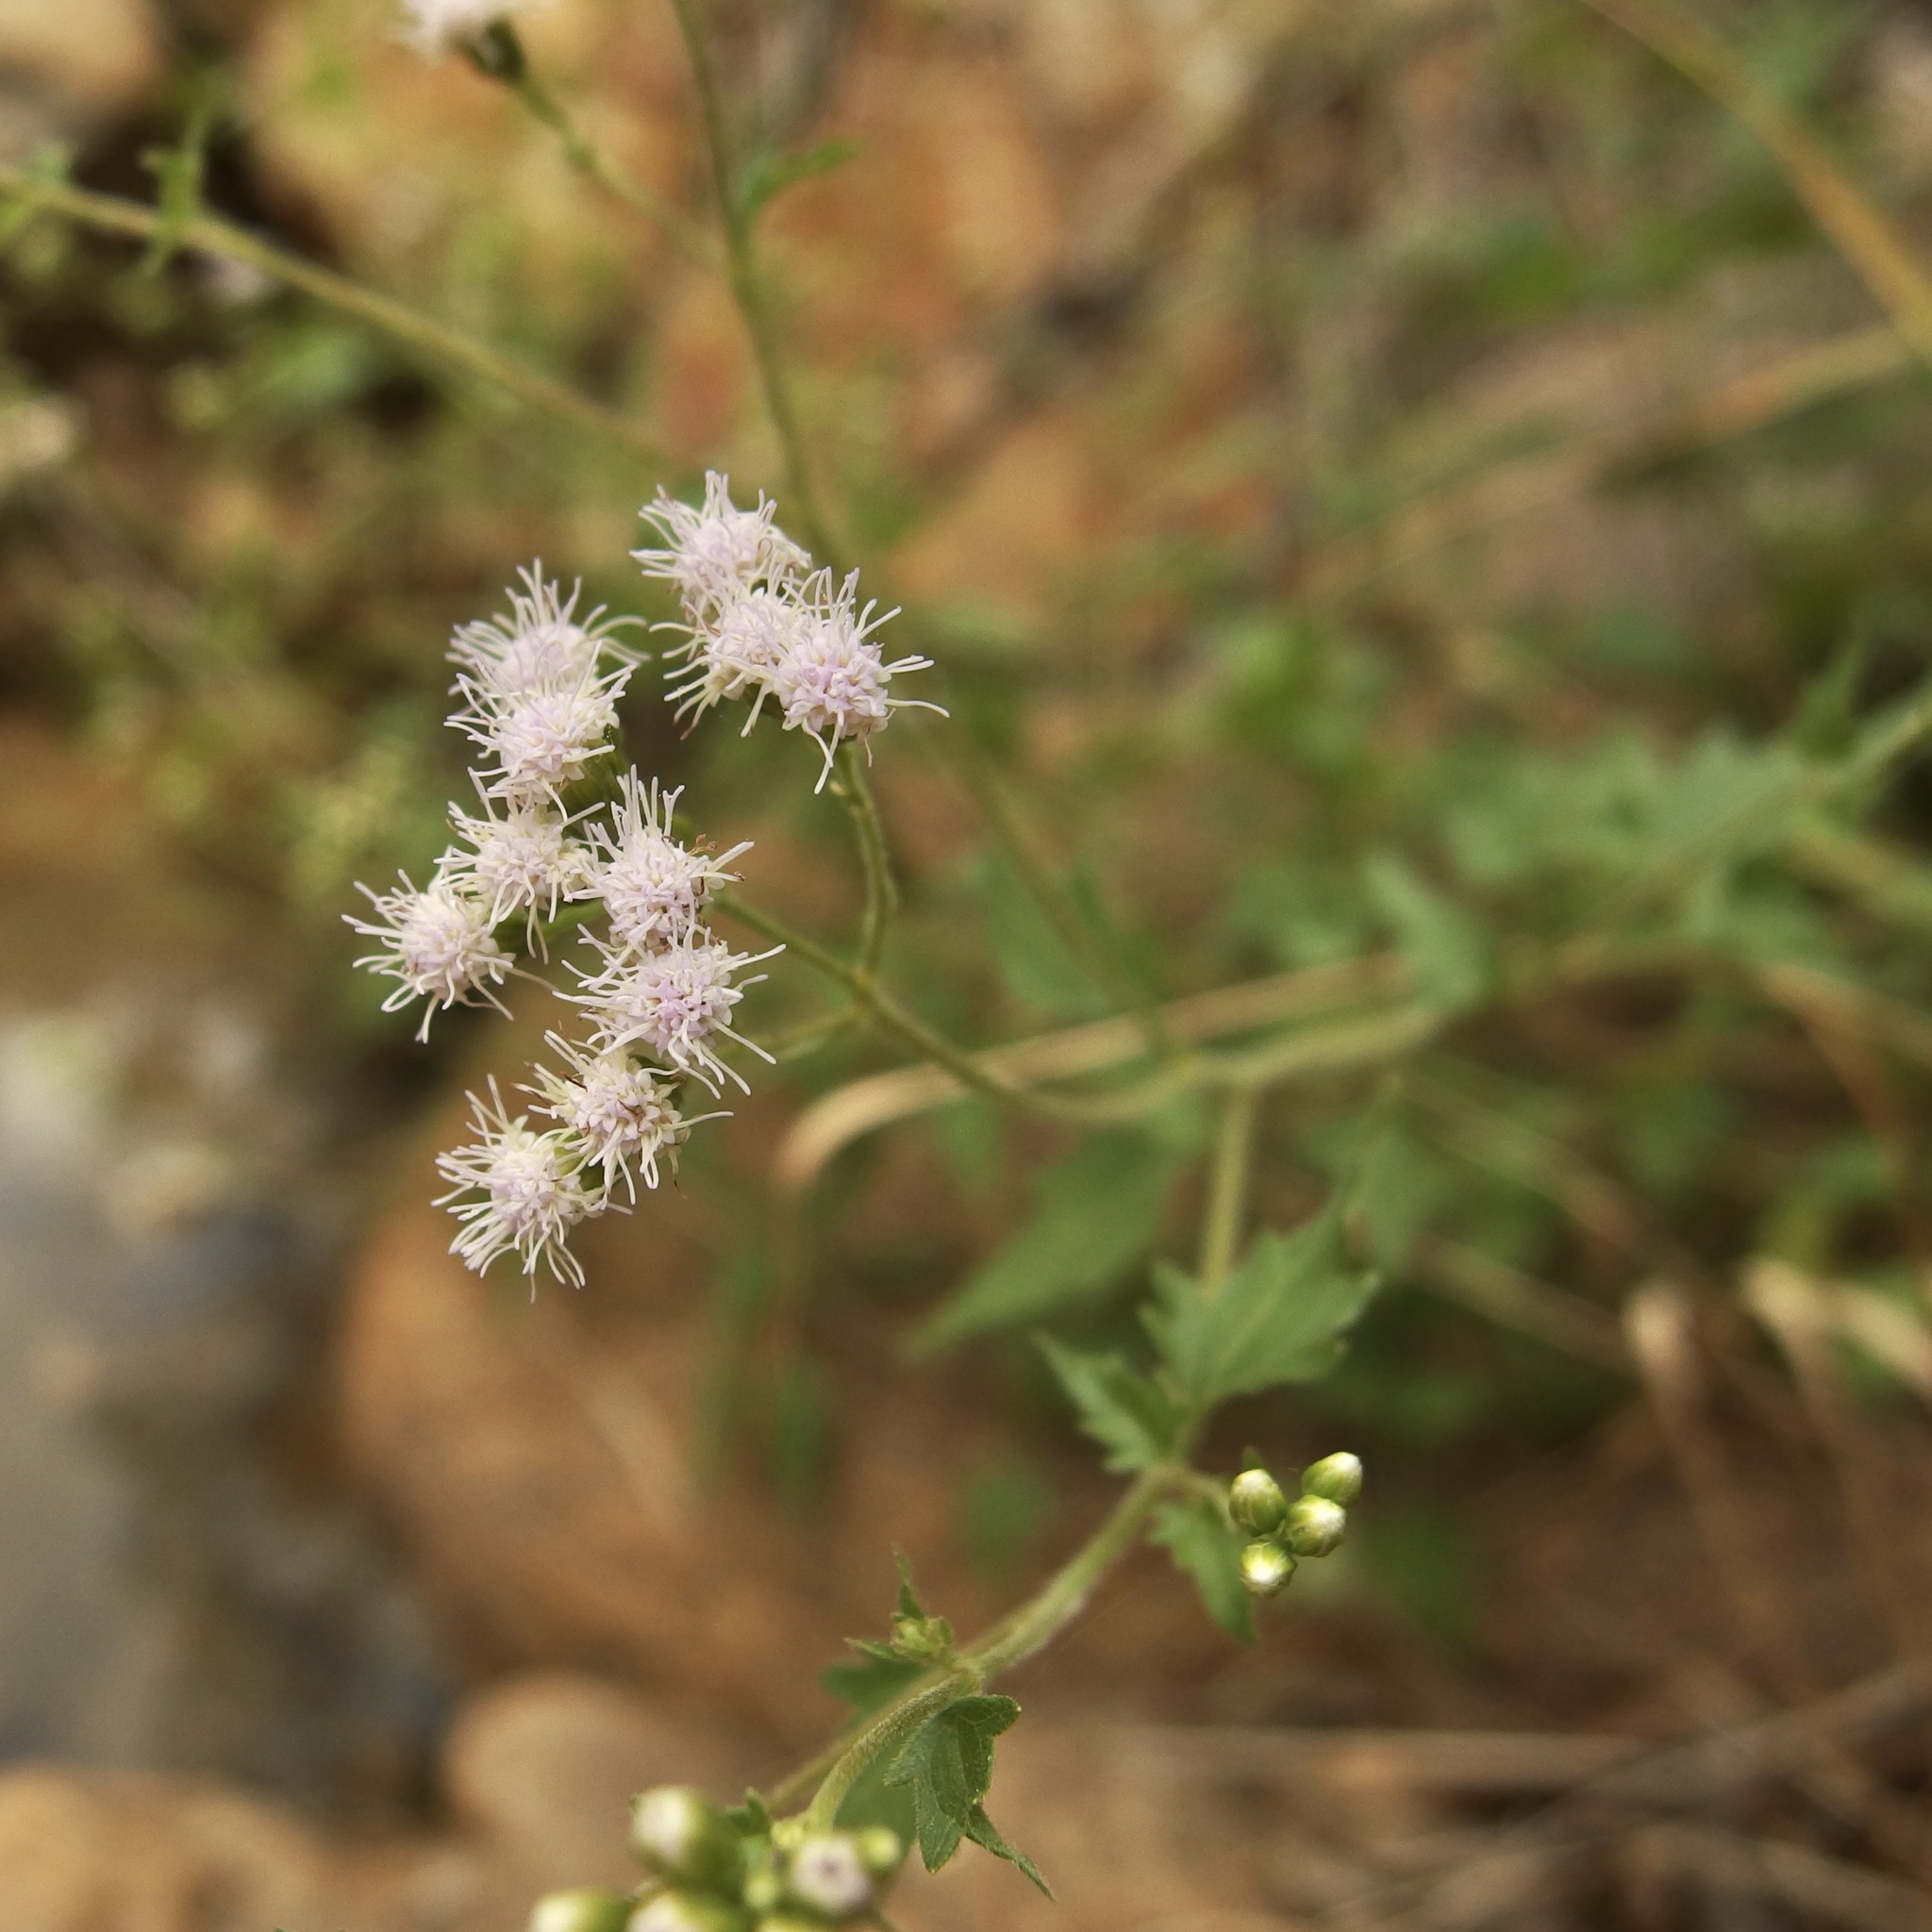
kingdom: Plantae
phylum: Tracheophyta
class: Magnoliopsida
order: Asterales
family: Asteraceae
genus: Fleischmannia
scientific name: Fleischmannia sonorae
